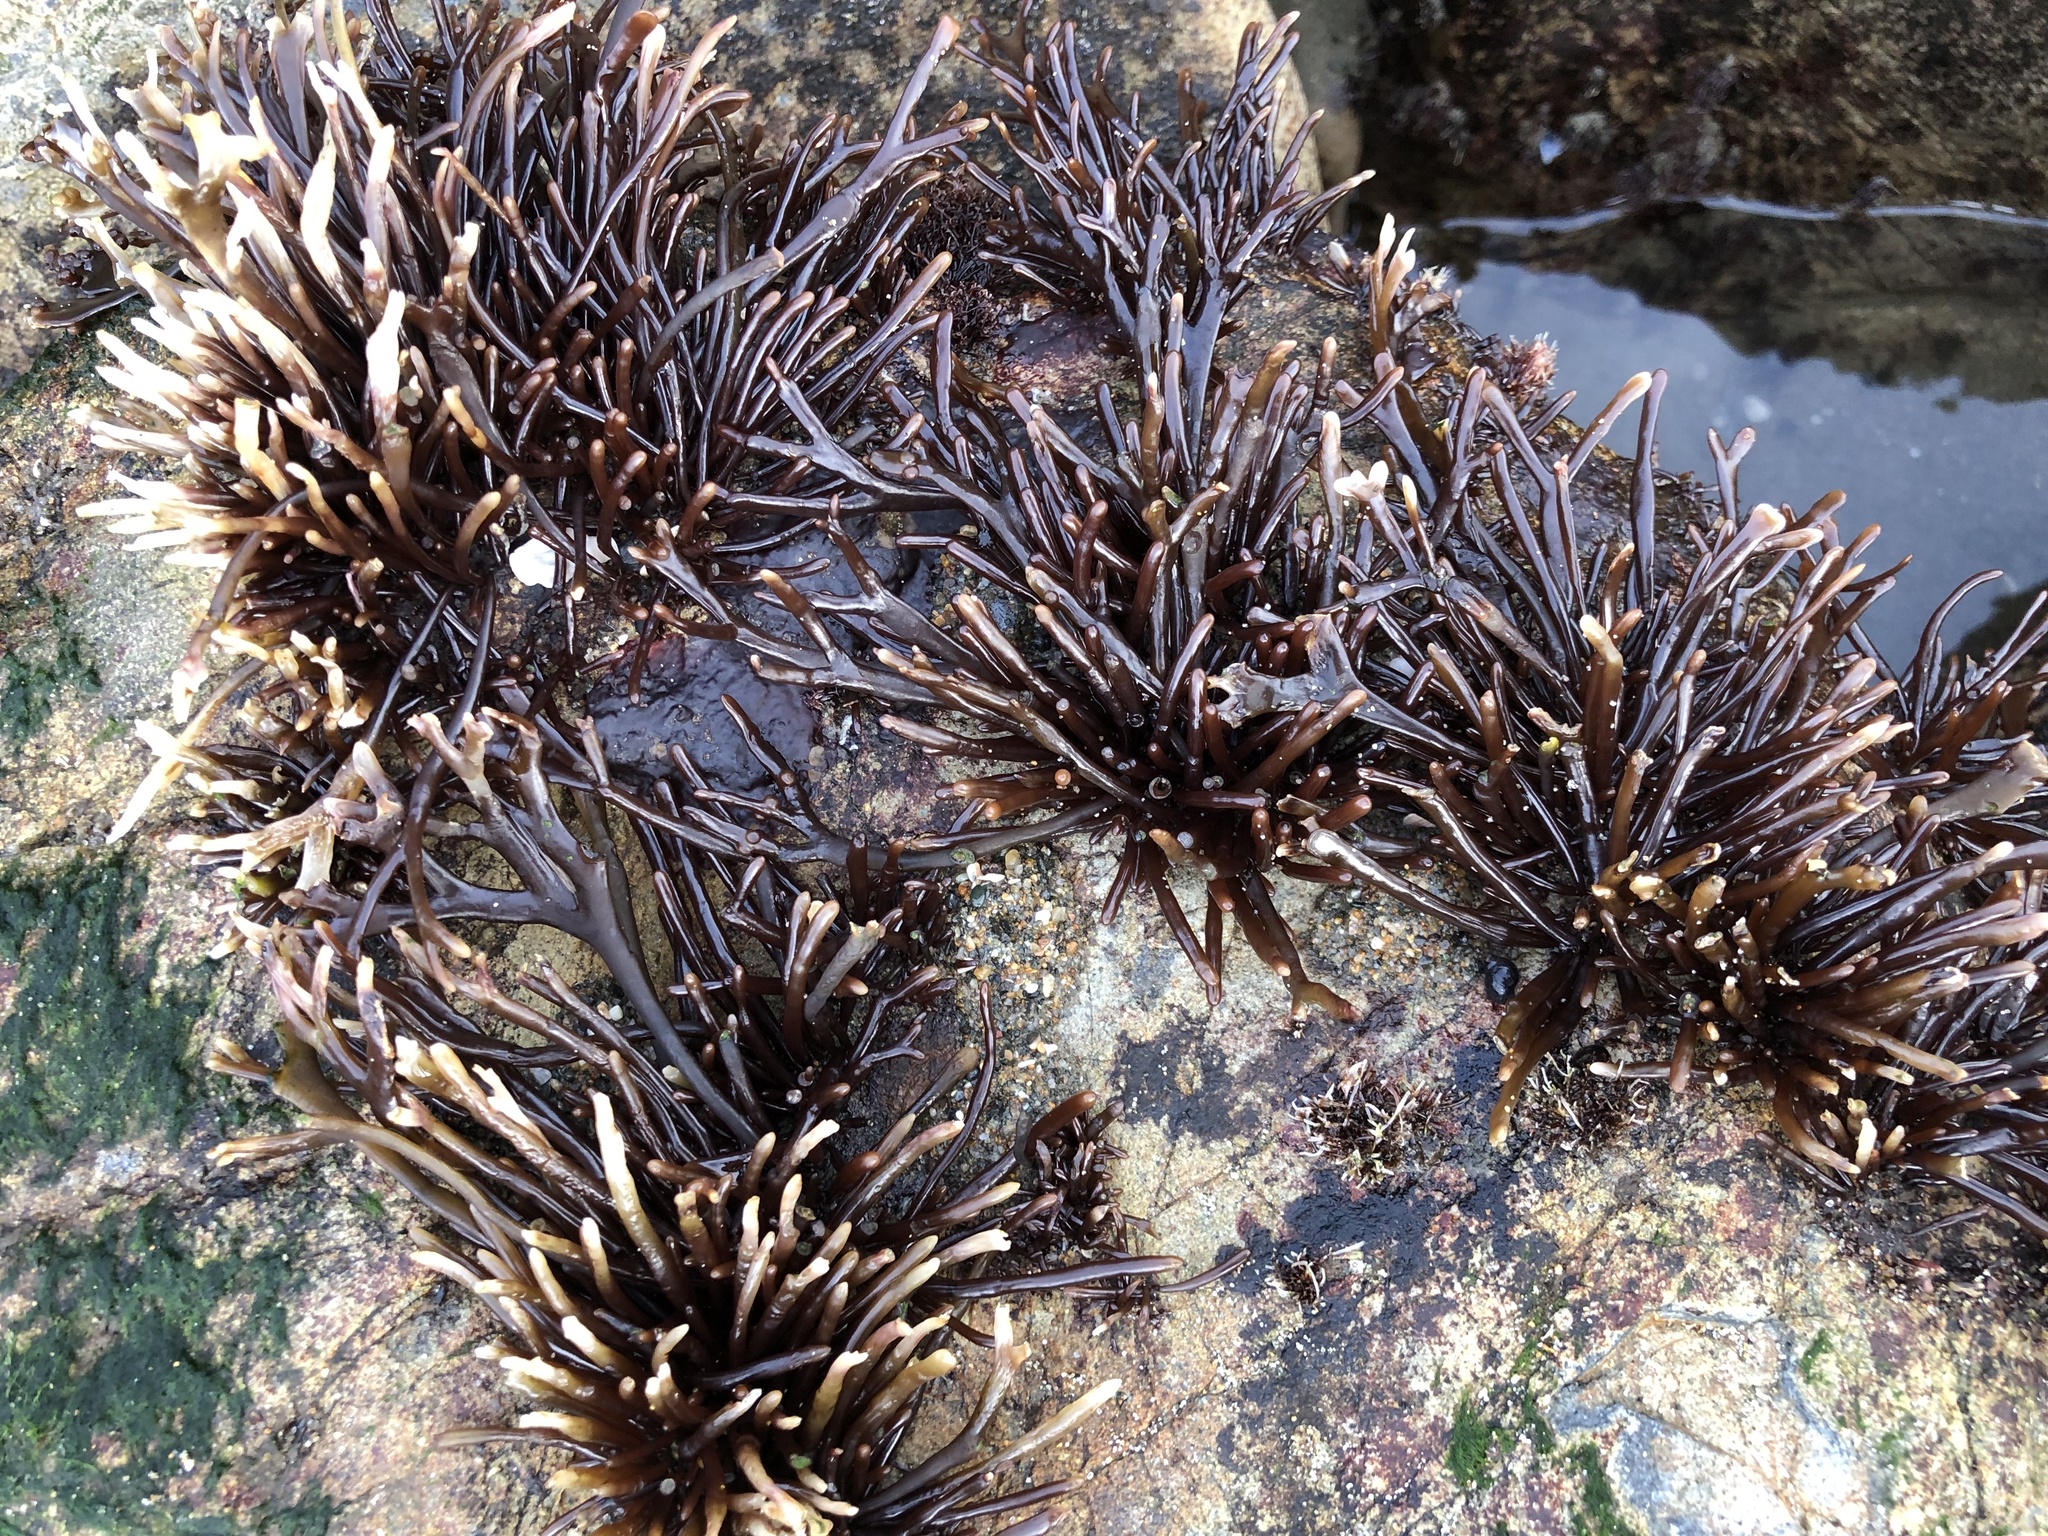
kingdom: Plantae
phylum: Rhodophyta
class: Florideophyceae
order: Gigartinales
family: Phyllophoraceae
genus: Ahnfeltiopsis
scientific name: Ahnfeltiopsis linearis
